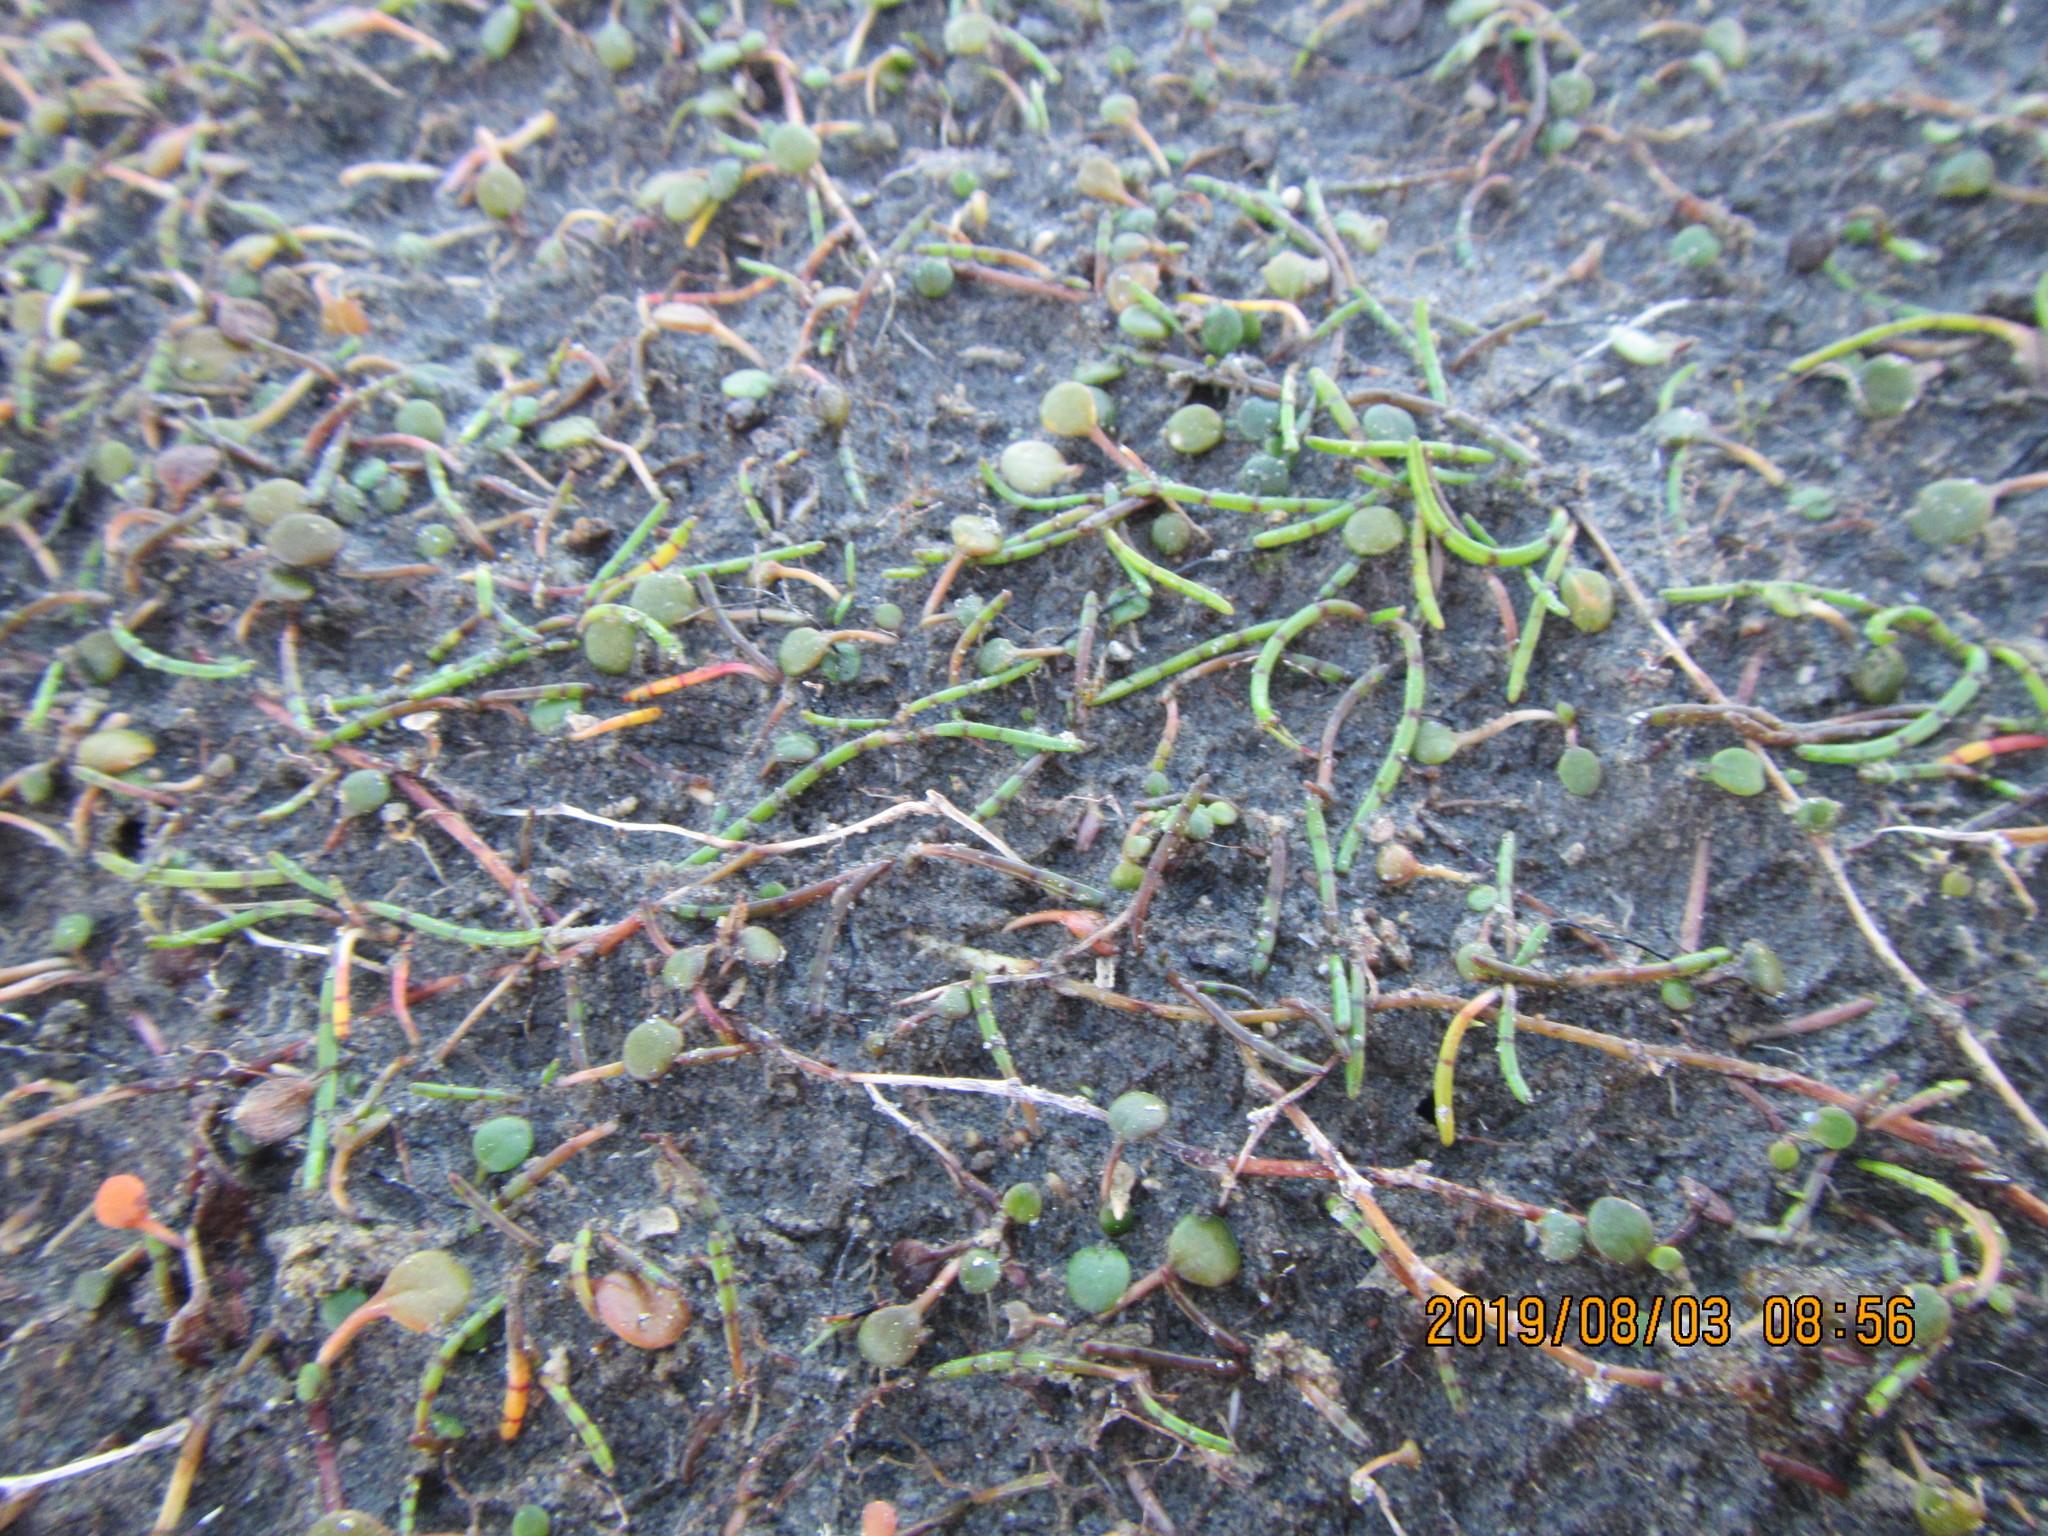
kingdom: Plantae
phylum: Tracheophyta
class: Magnoliopsida
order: Apiales
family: Apiaceae
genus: Lilaeopsis
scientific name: Lilaeopsis novae-zelandiae
